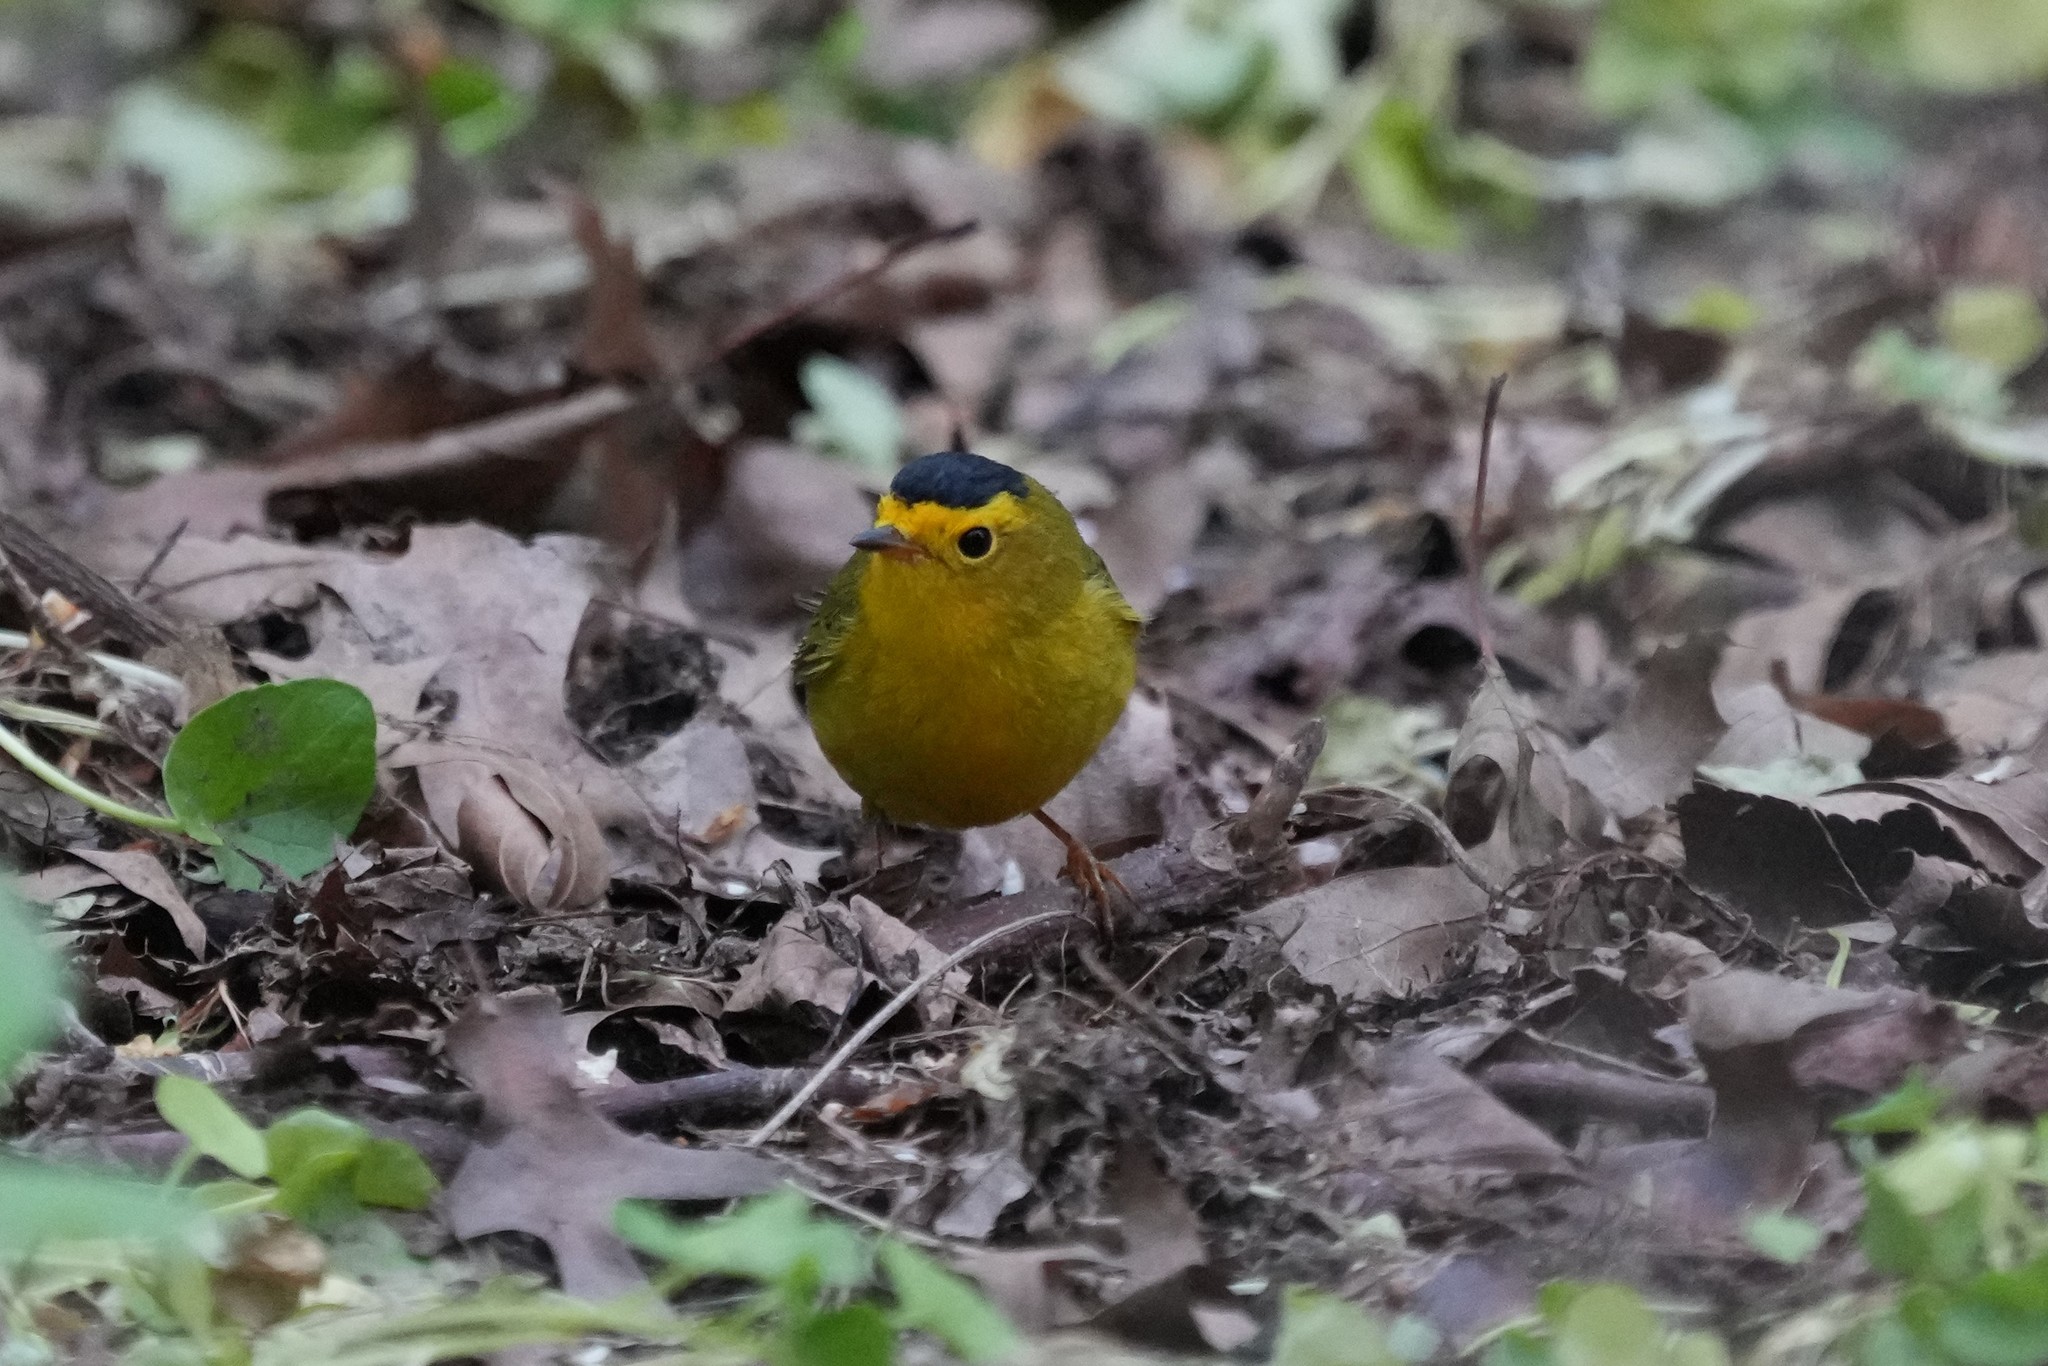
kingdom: Animalia
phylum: Chordata
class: Aves
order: Passeriformes
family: Parulidae
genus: Cardellina
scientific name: Cardellina pusilla
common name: Wilson's warbler
